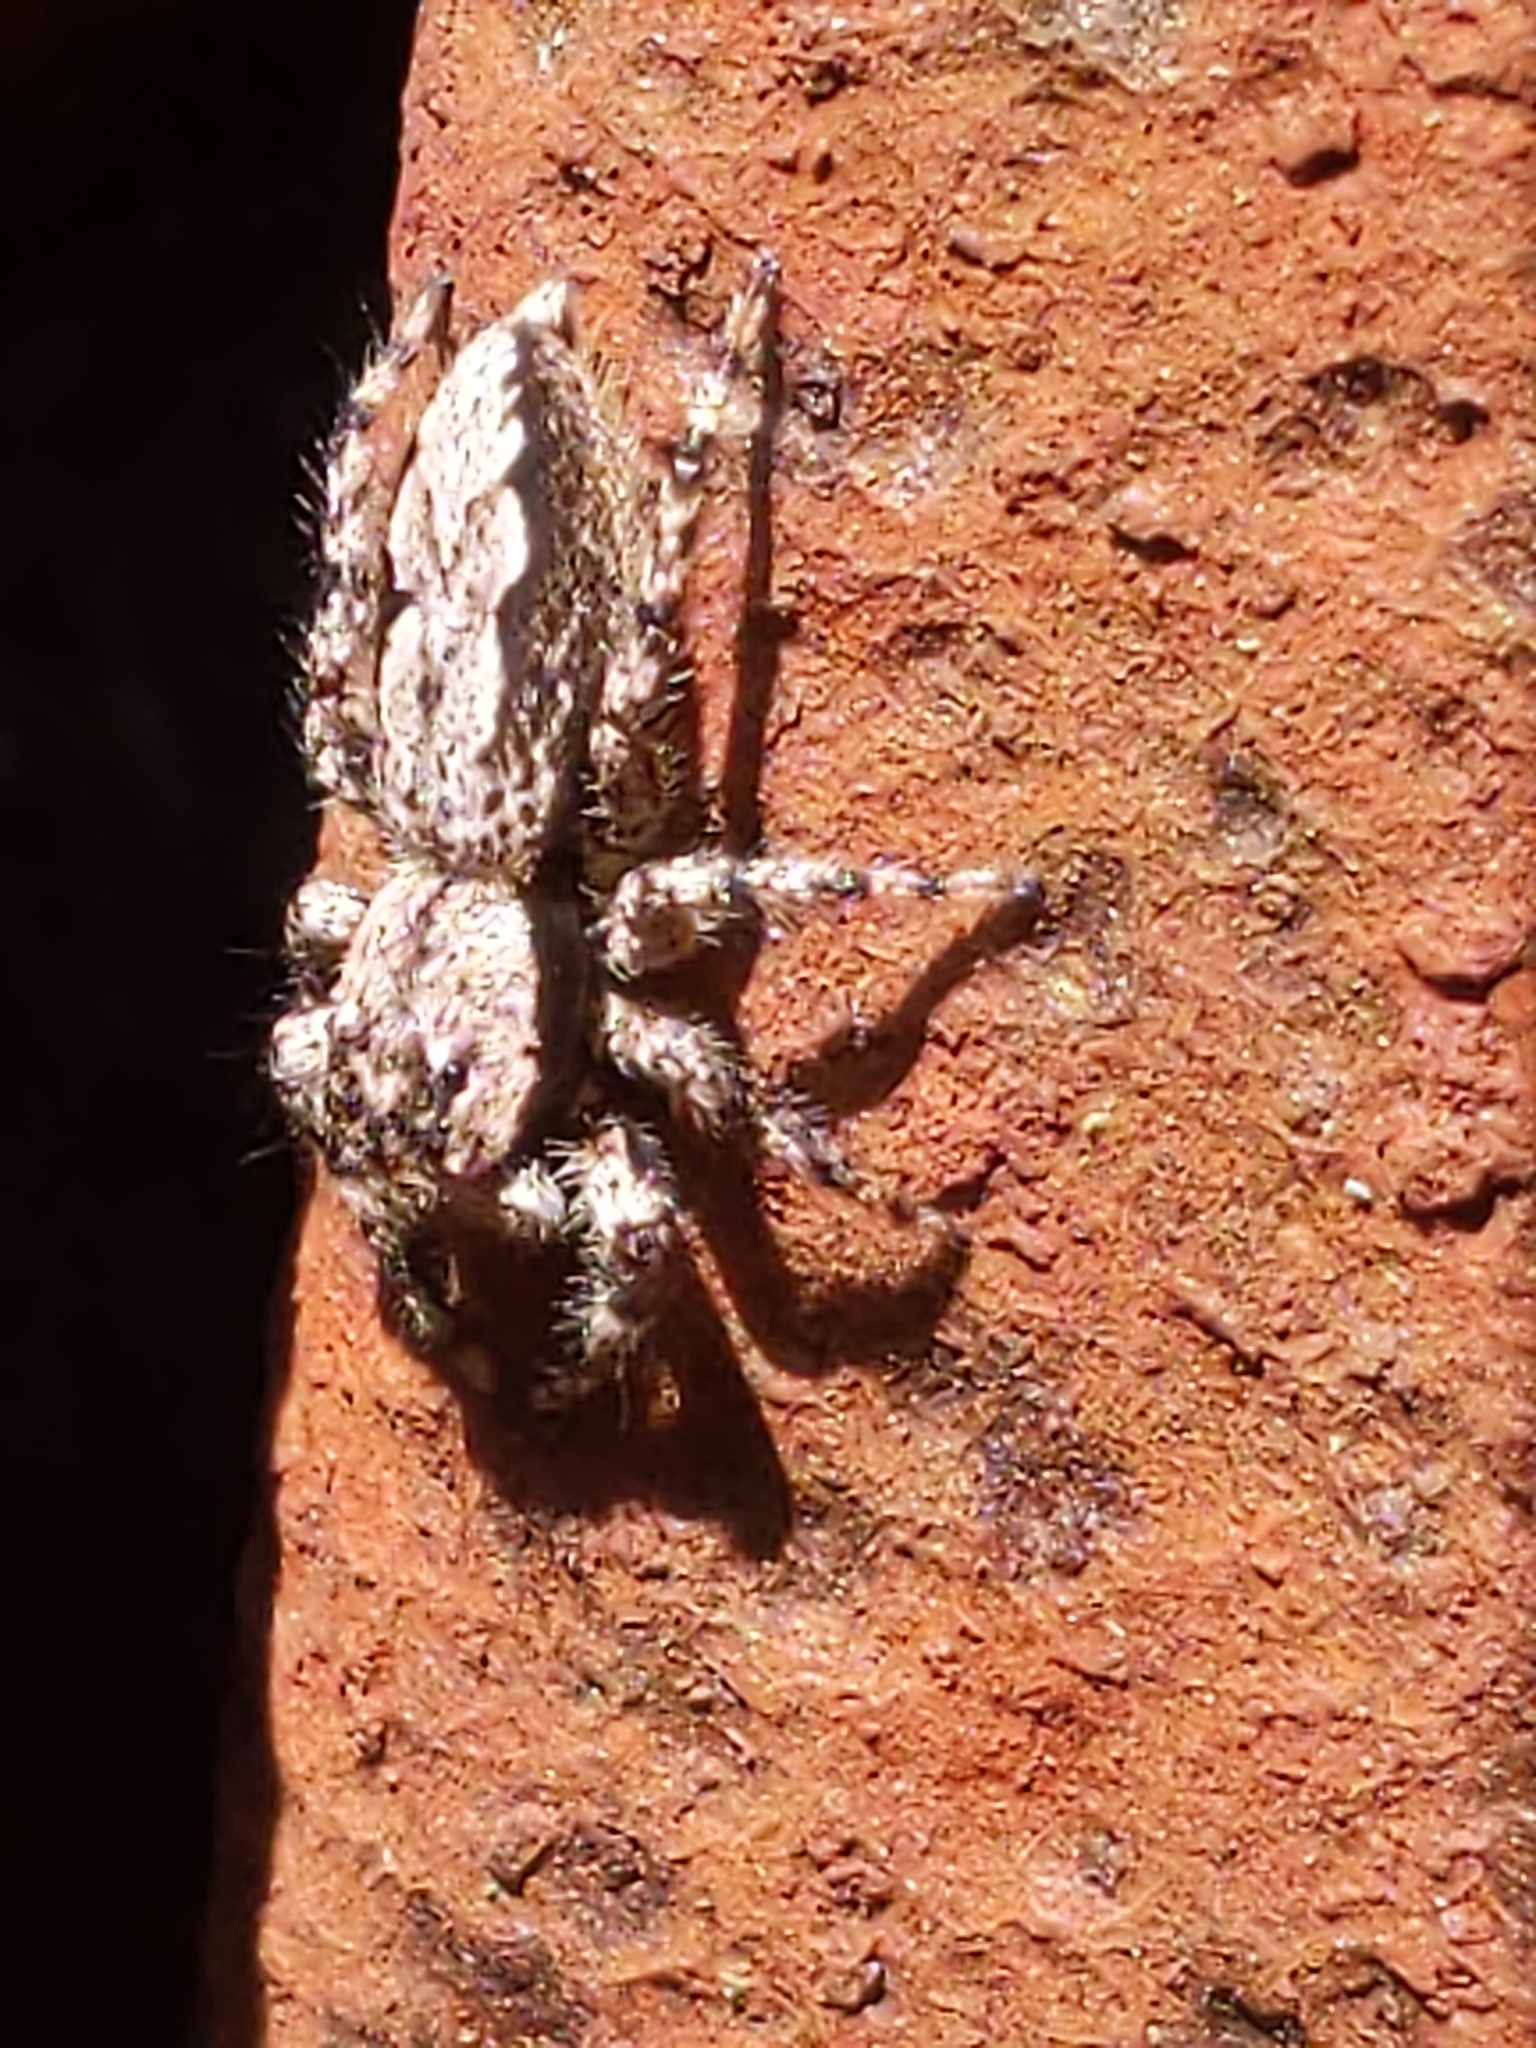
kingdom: Animalia
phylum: Arthropoda
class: Arachnida
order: Araneae
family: Salticidae
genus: Platycryptus
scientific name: Platycryptus undatus
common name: Tan jumping spider
